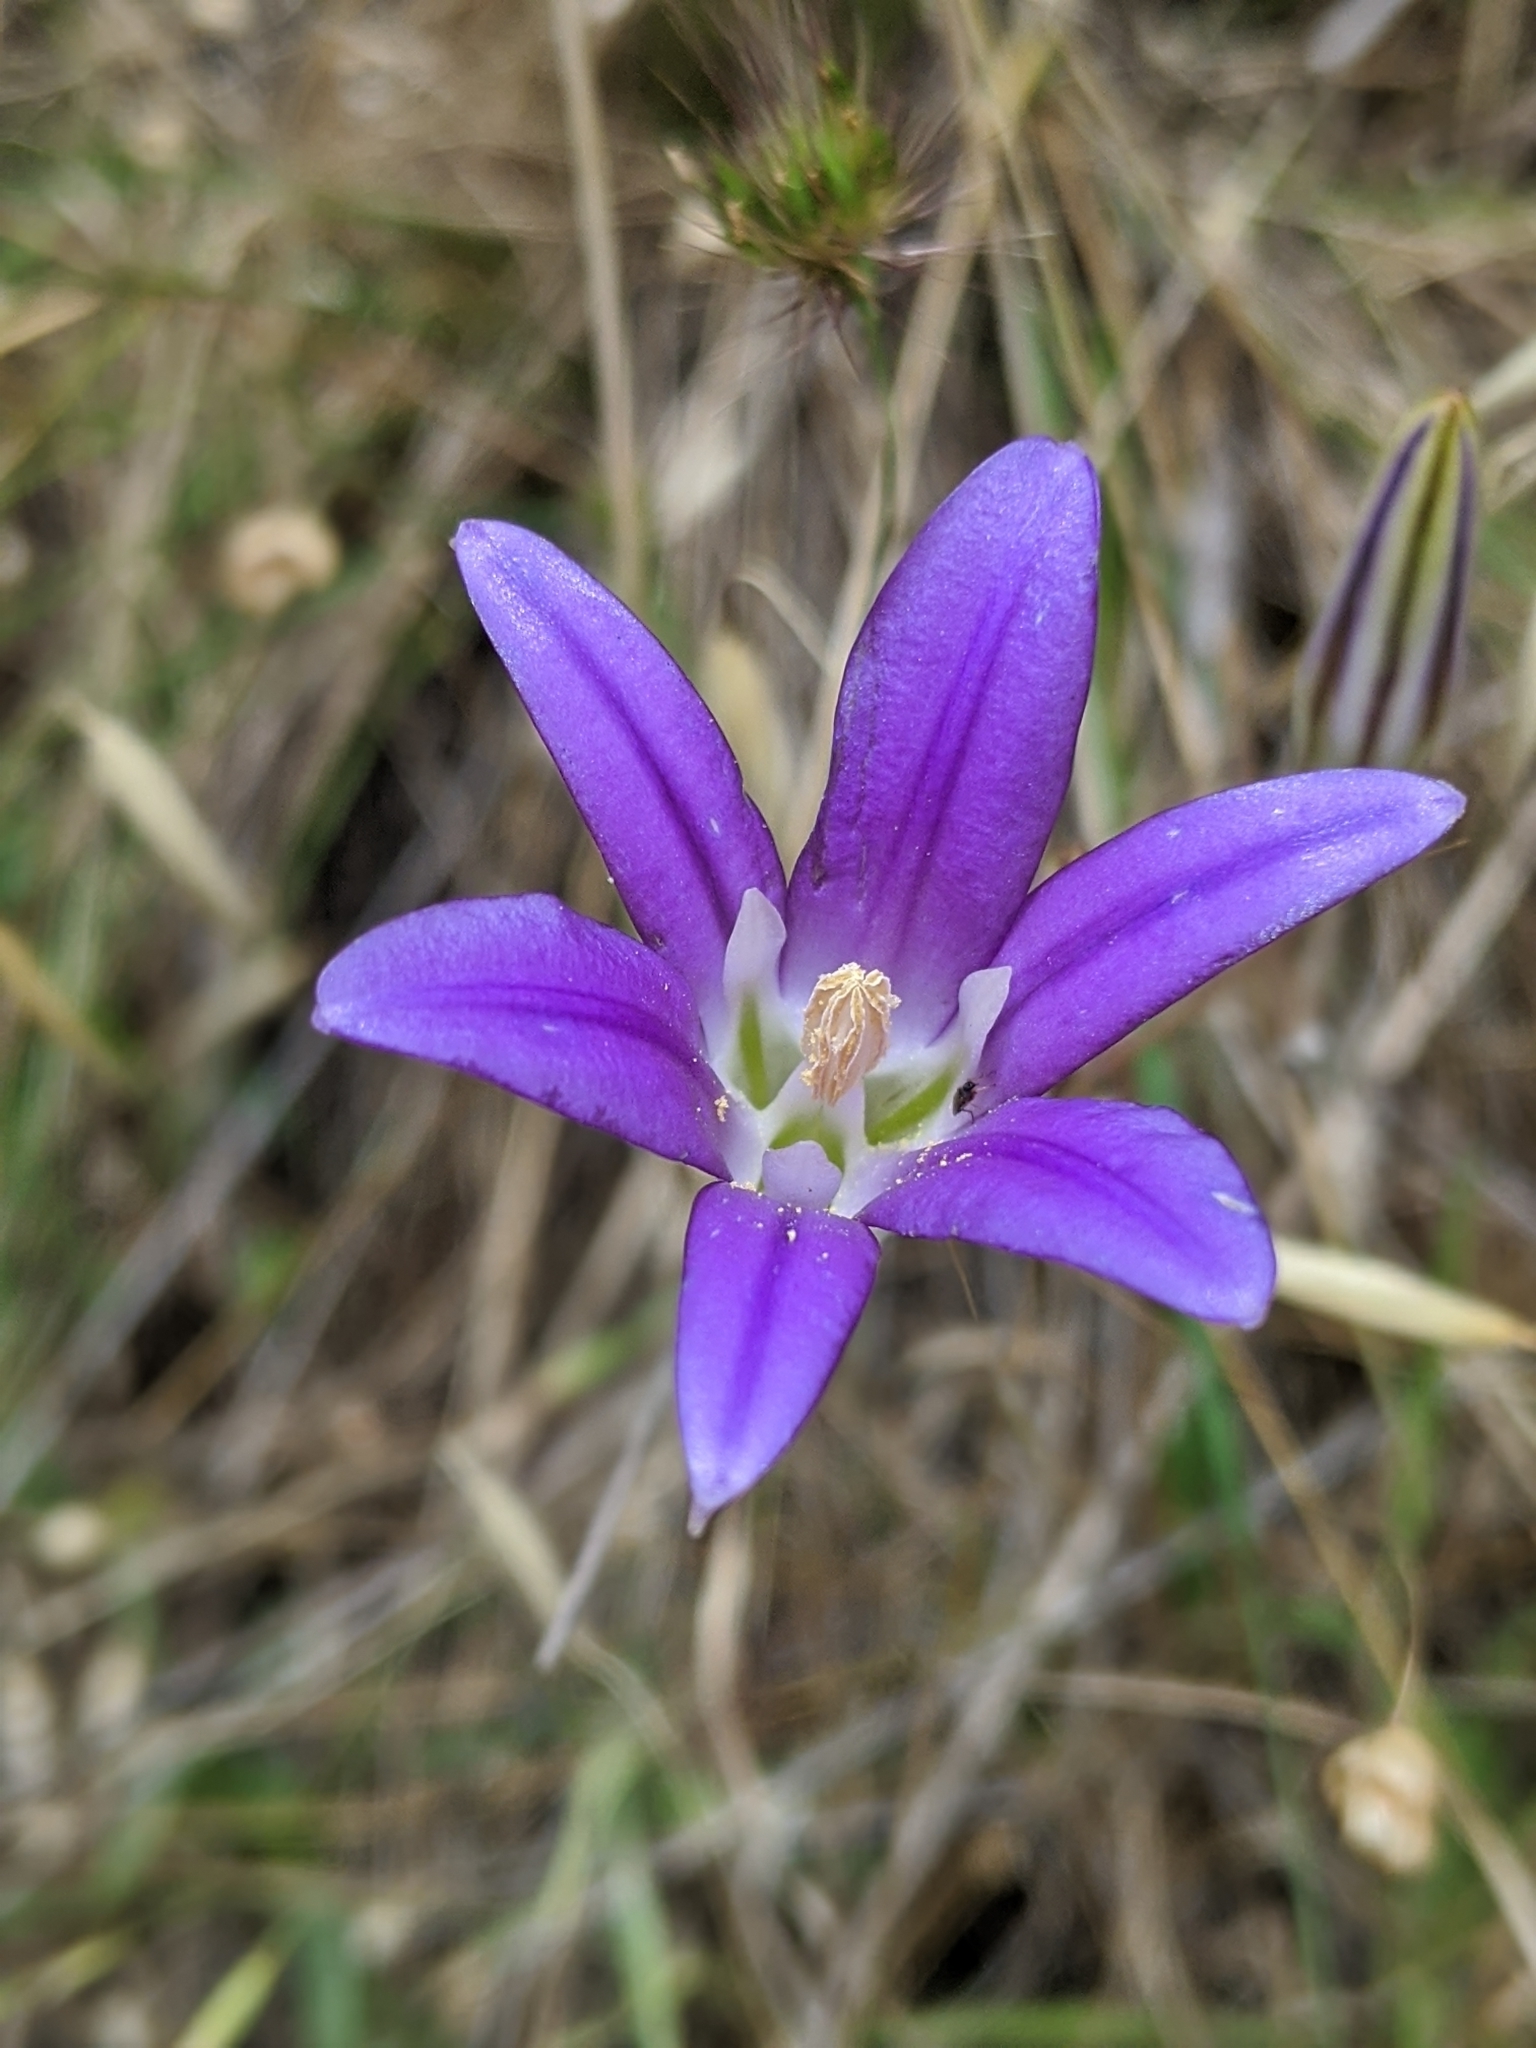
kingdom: Plantae
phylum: Tracheophyta
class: Liliopsida
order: Asparagales
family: Asparagaceae
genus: Brodiaea
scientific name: Brodiaea elegans
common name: Elegant cluster-lily
